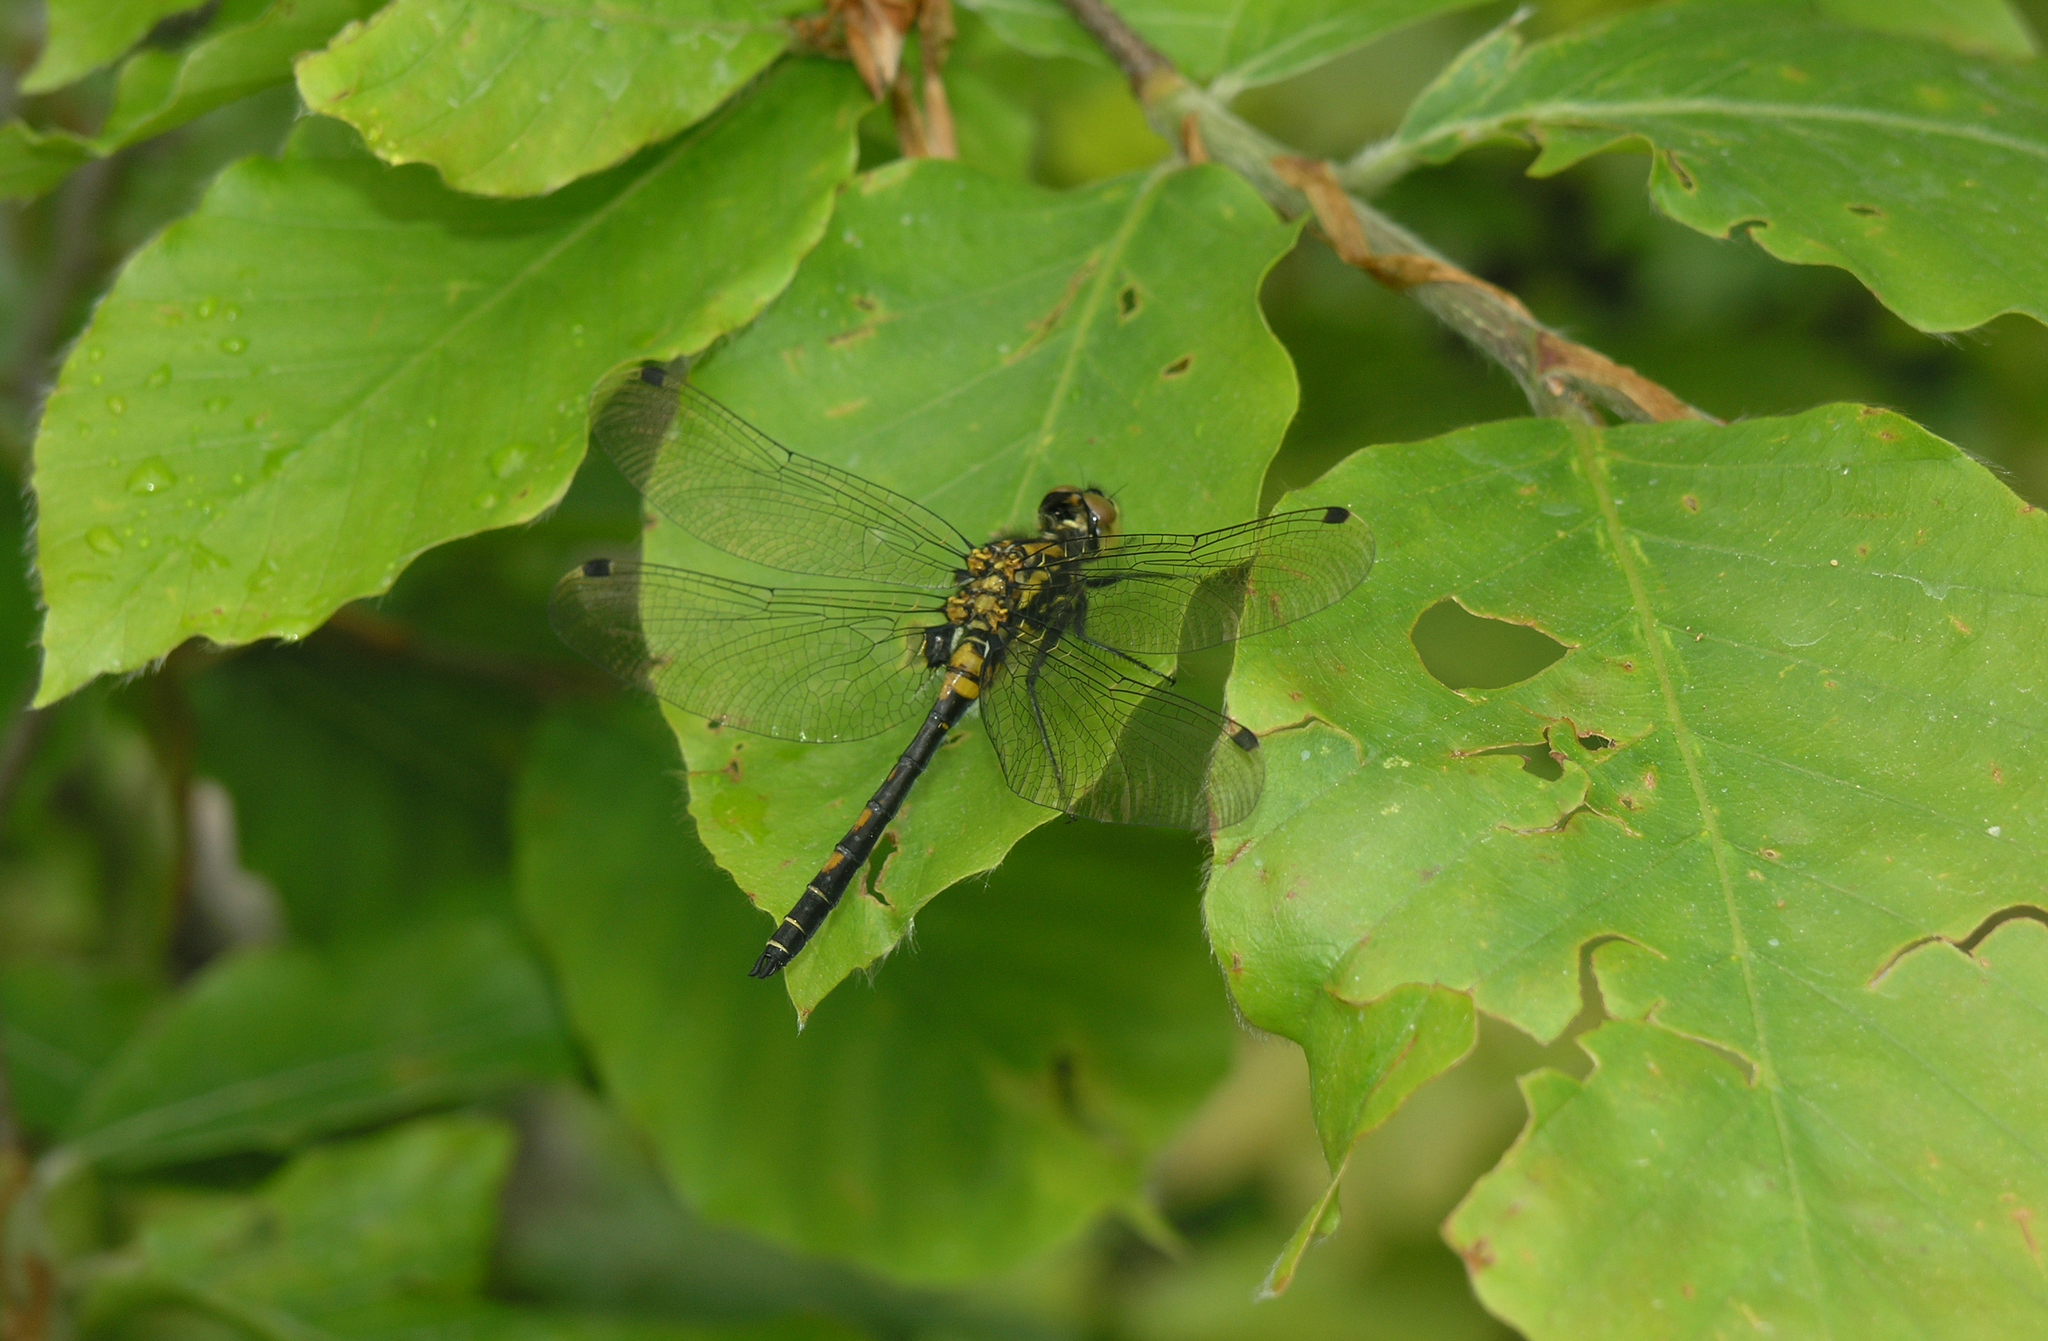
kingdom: Animalia
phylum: Arthropoda
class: Insecta
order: Odonata
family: Libellulidae
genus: Leucorrhinia
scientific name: Leucorrhinia dubia
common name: White-faced darter
